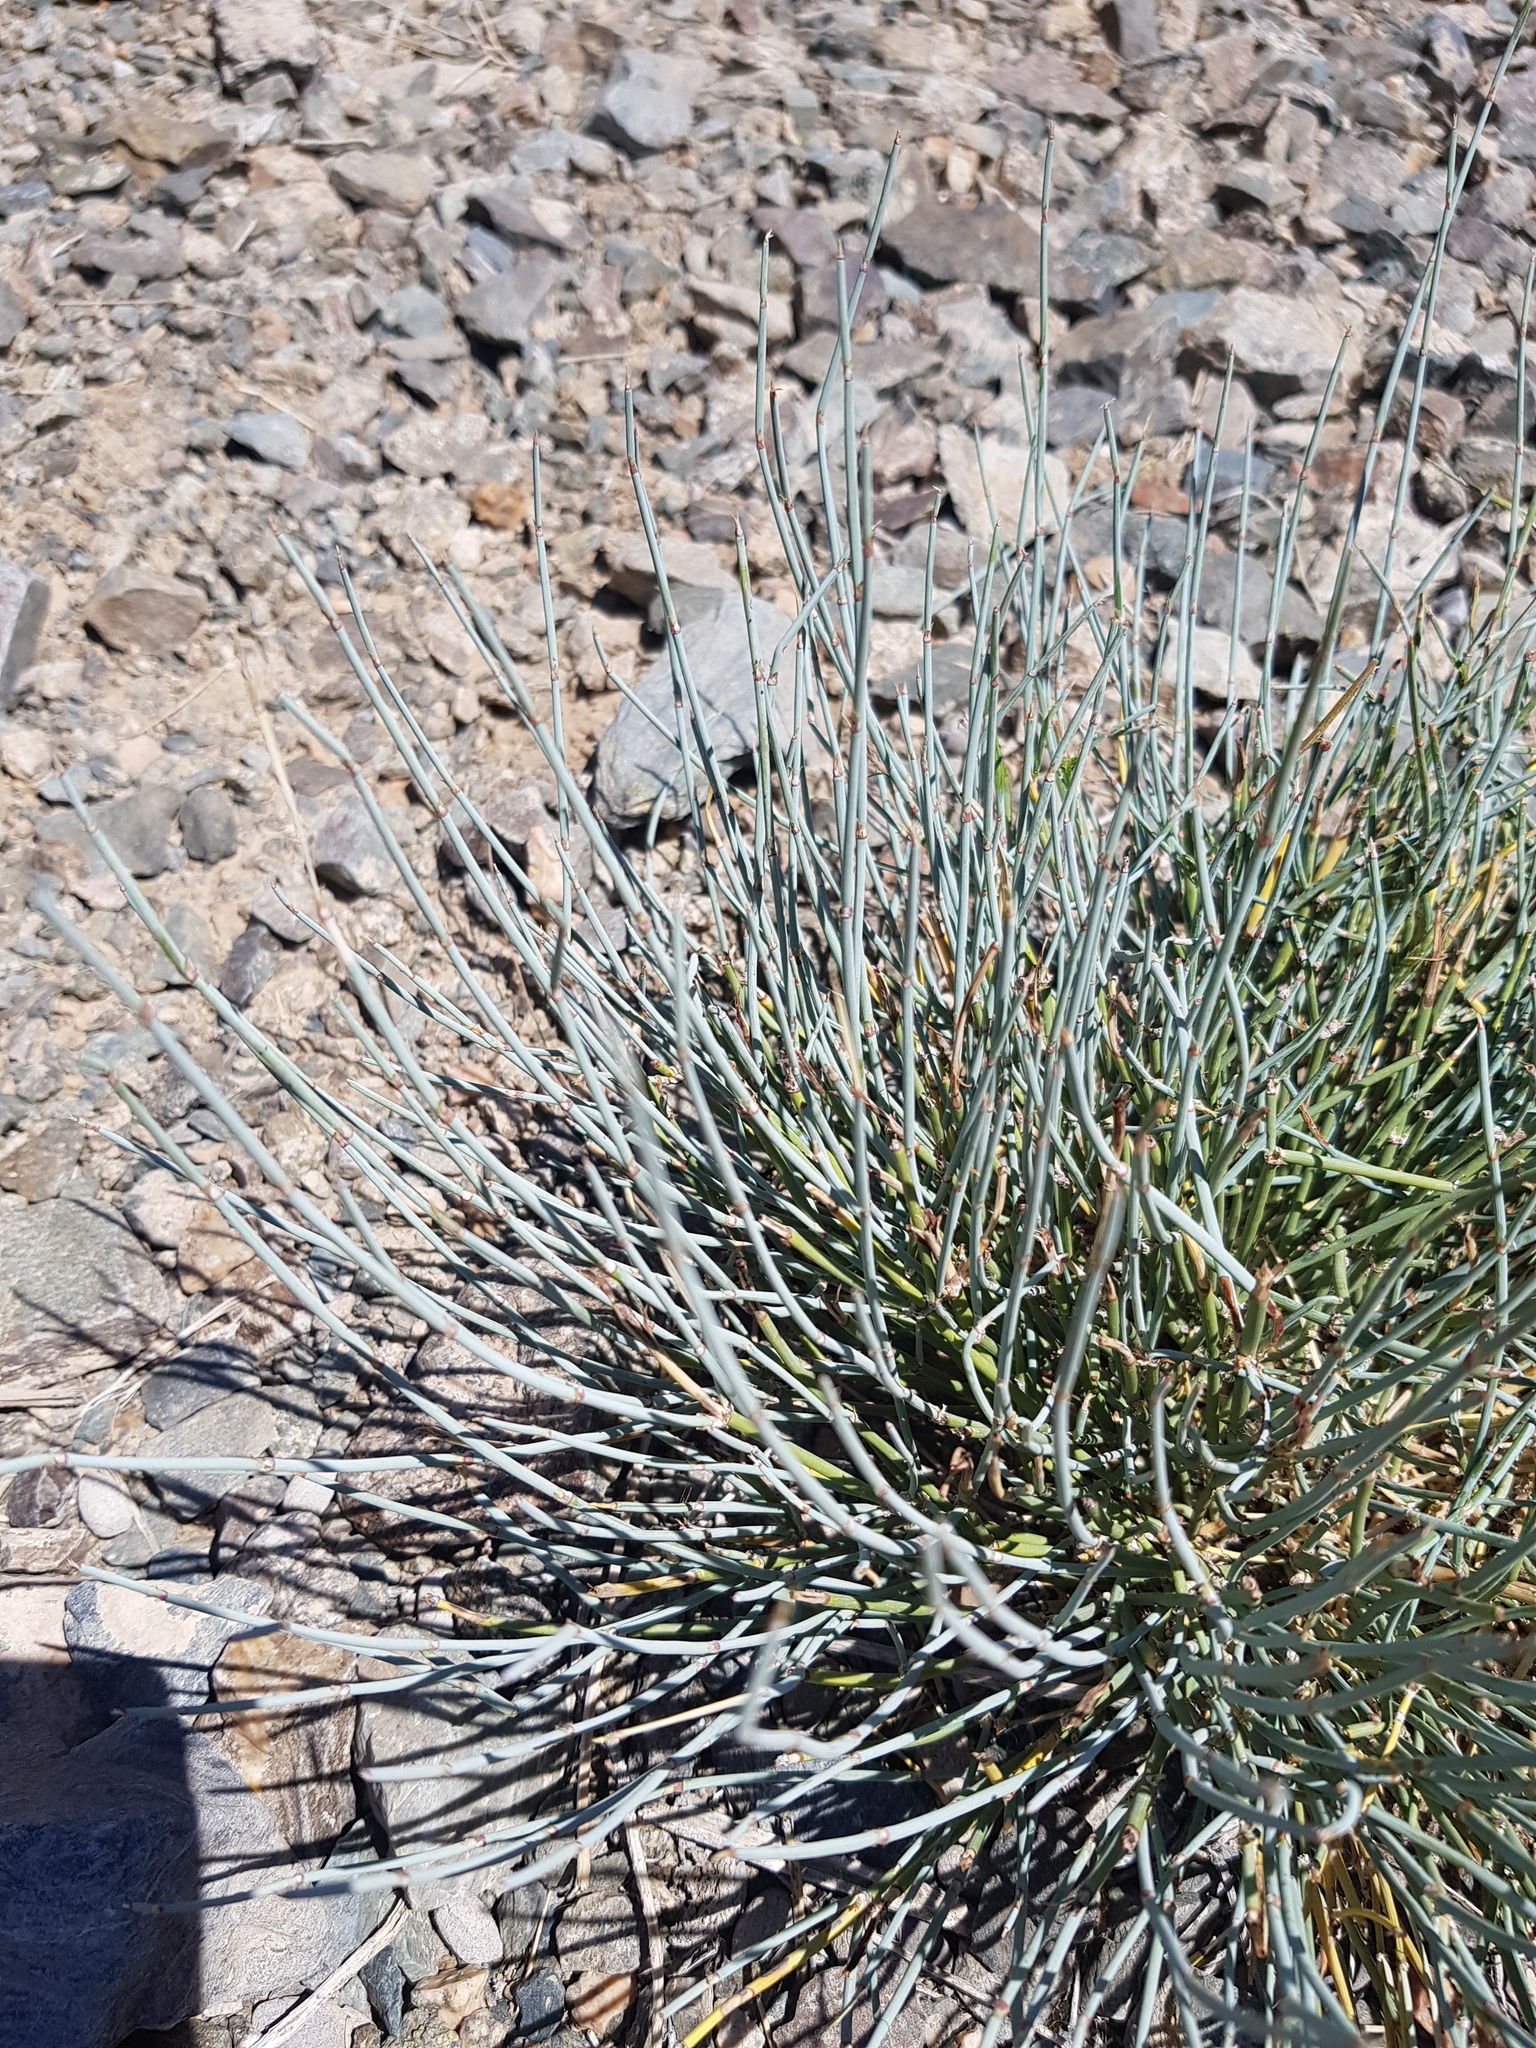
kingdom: Plantae
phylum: Tracheophyta
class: Gnetopsida
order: Ephedrales
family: Ephedraceae
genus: Ephedra
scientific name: Ephedra equisetina
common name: Mongolian ephedra
